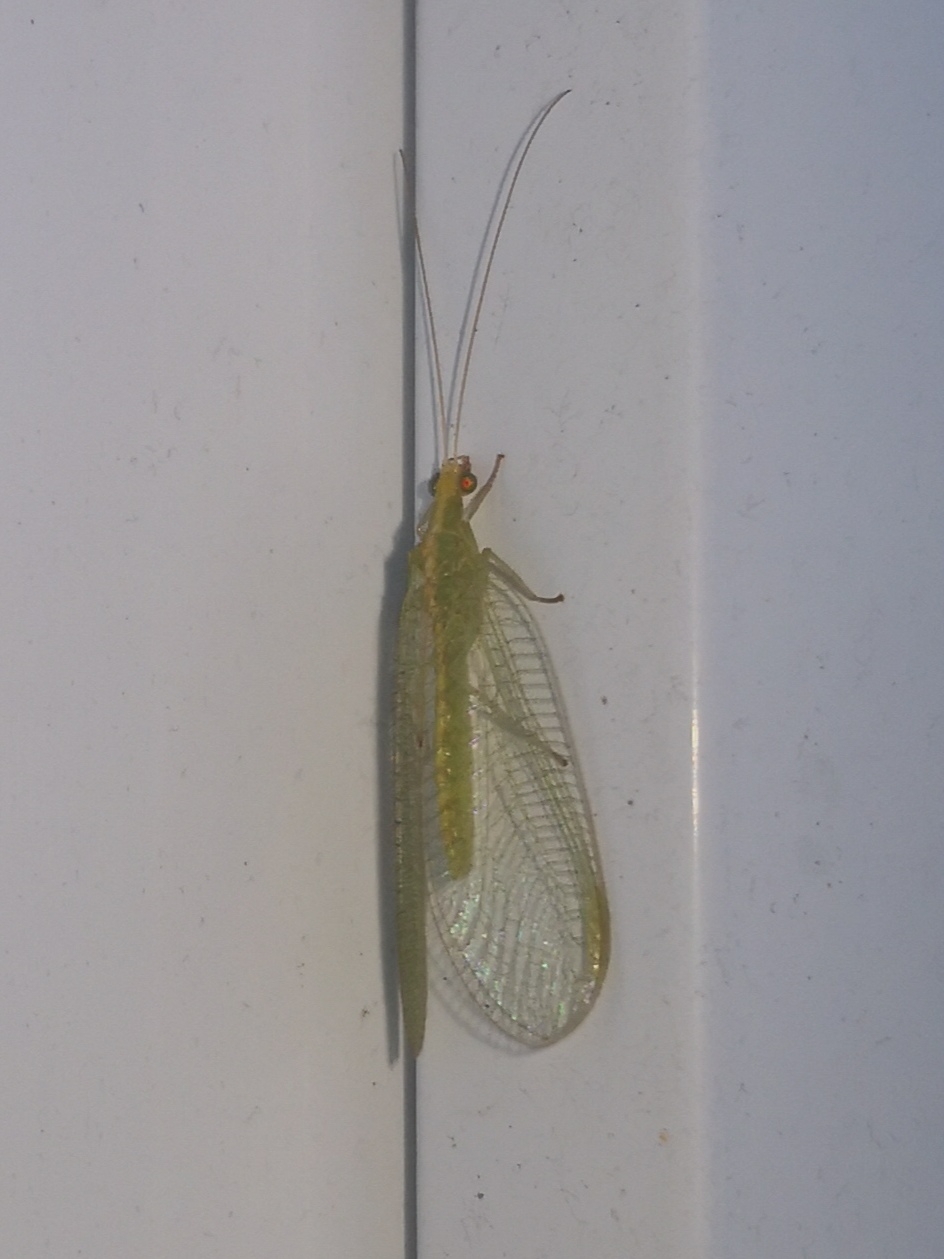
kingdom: Animalia
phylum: Arthropoda
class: Insecta
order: Neuroptera
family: Chrysopidae
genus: Chrysoperla
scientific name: Chrysoperla
